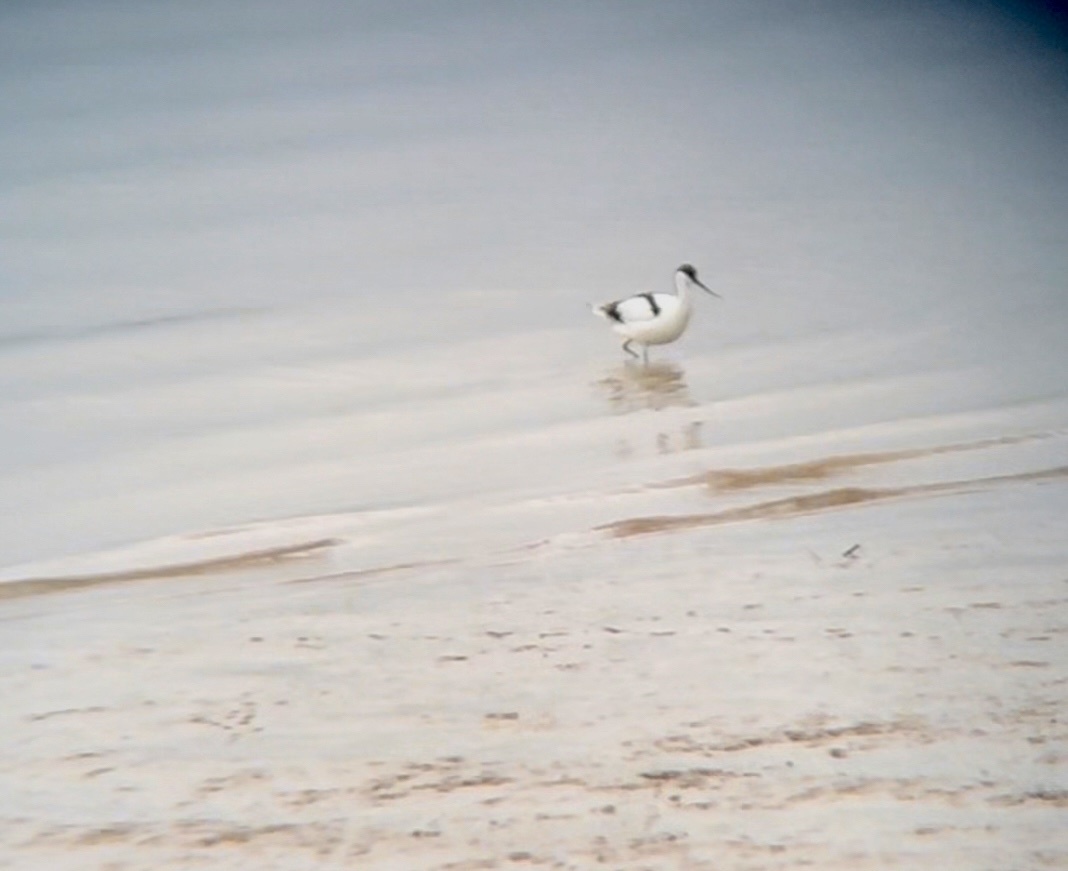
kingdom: Animalia
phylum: Chordata
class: Aves
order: Charadriiformes
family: Recurvirostridae
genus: Recurvirostra
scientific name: Recurvirostra avosetta
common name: Pied avocet
